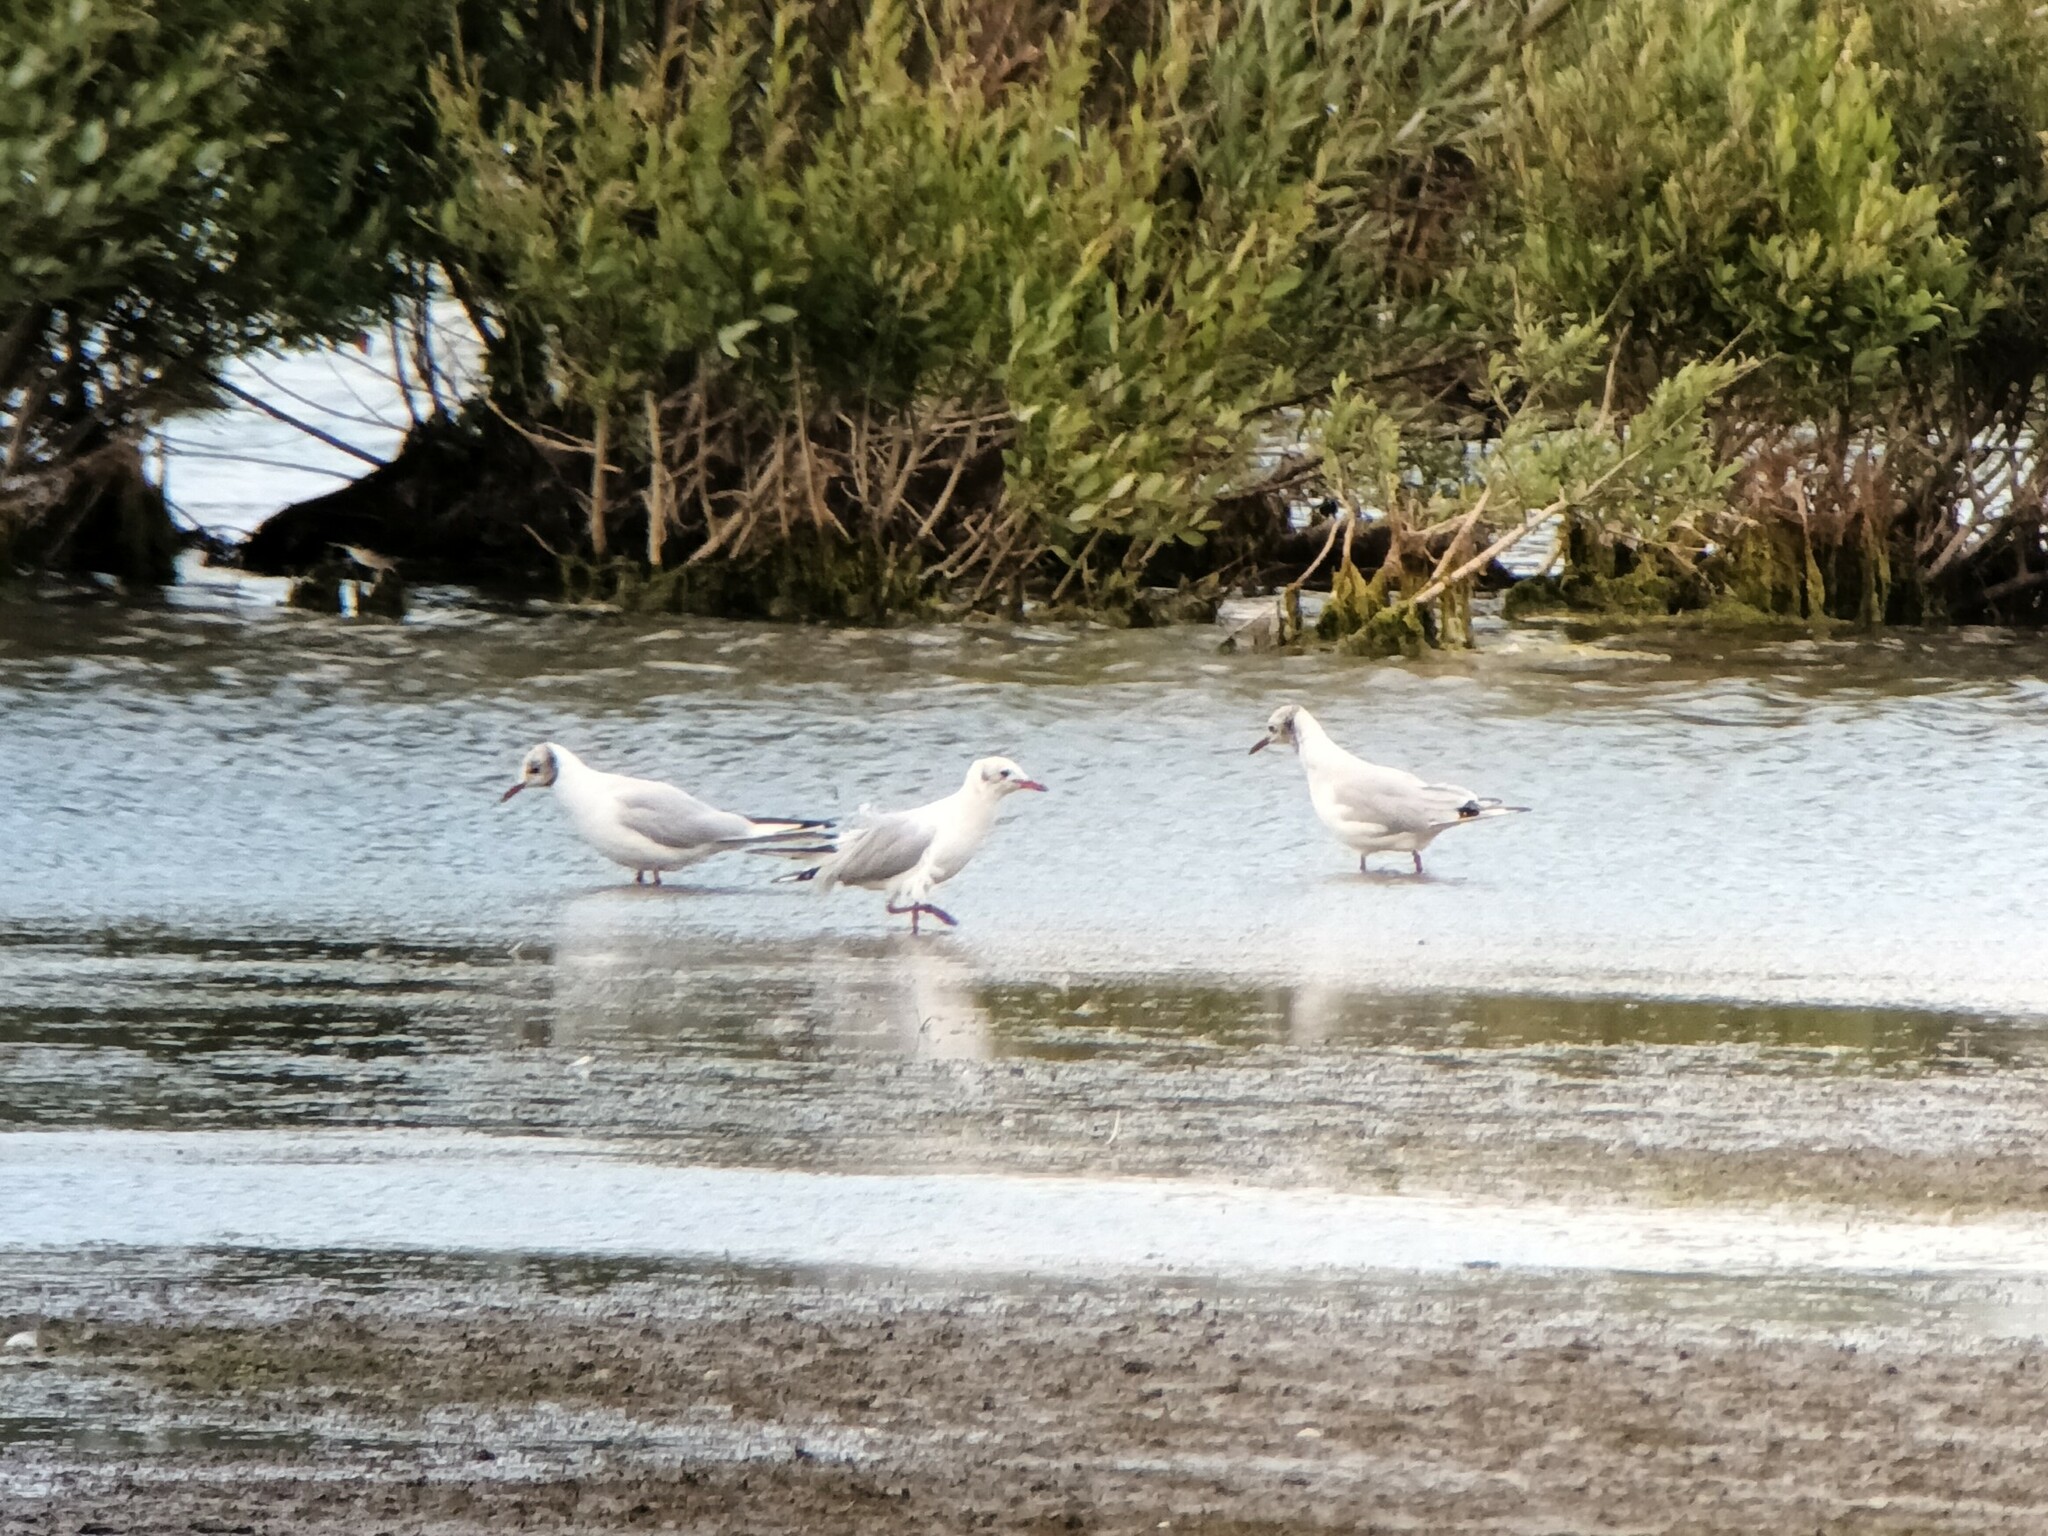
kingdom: Animalia
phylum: Chordata
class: Aves
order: Charadriiformes
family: Laridae
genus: Chroicocephalus
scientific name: Chroicocephalus ridibundus
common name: Black-headed gull
